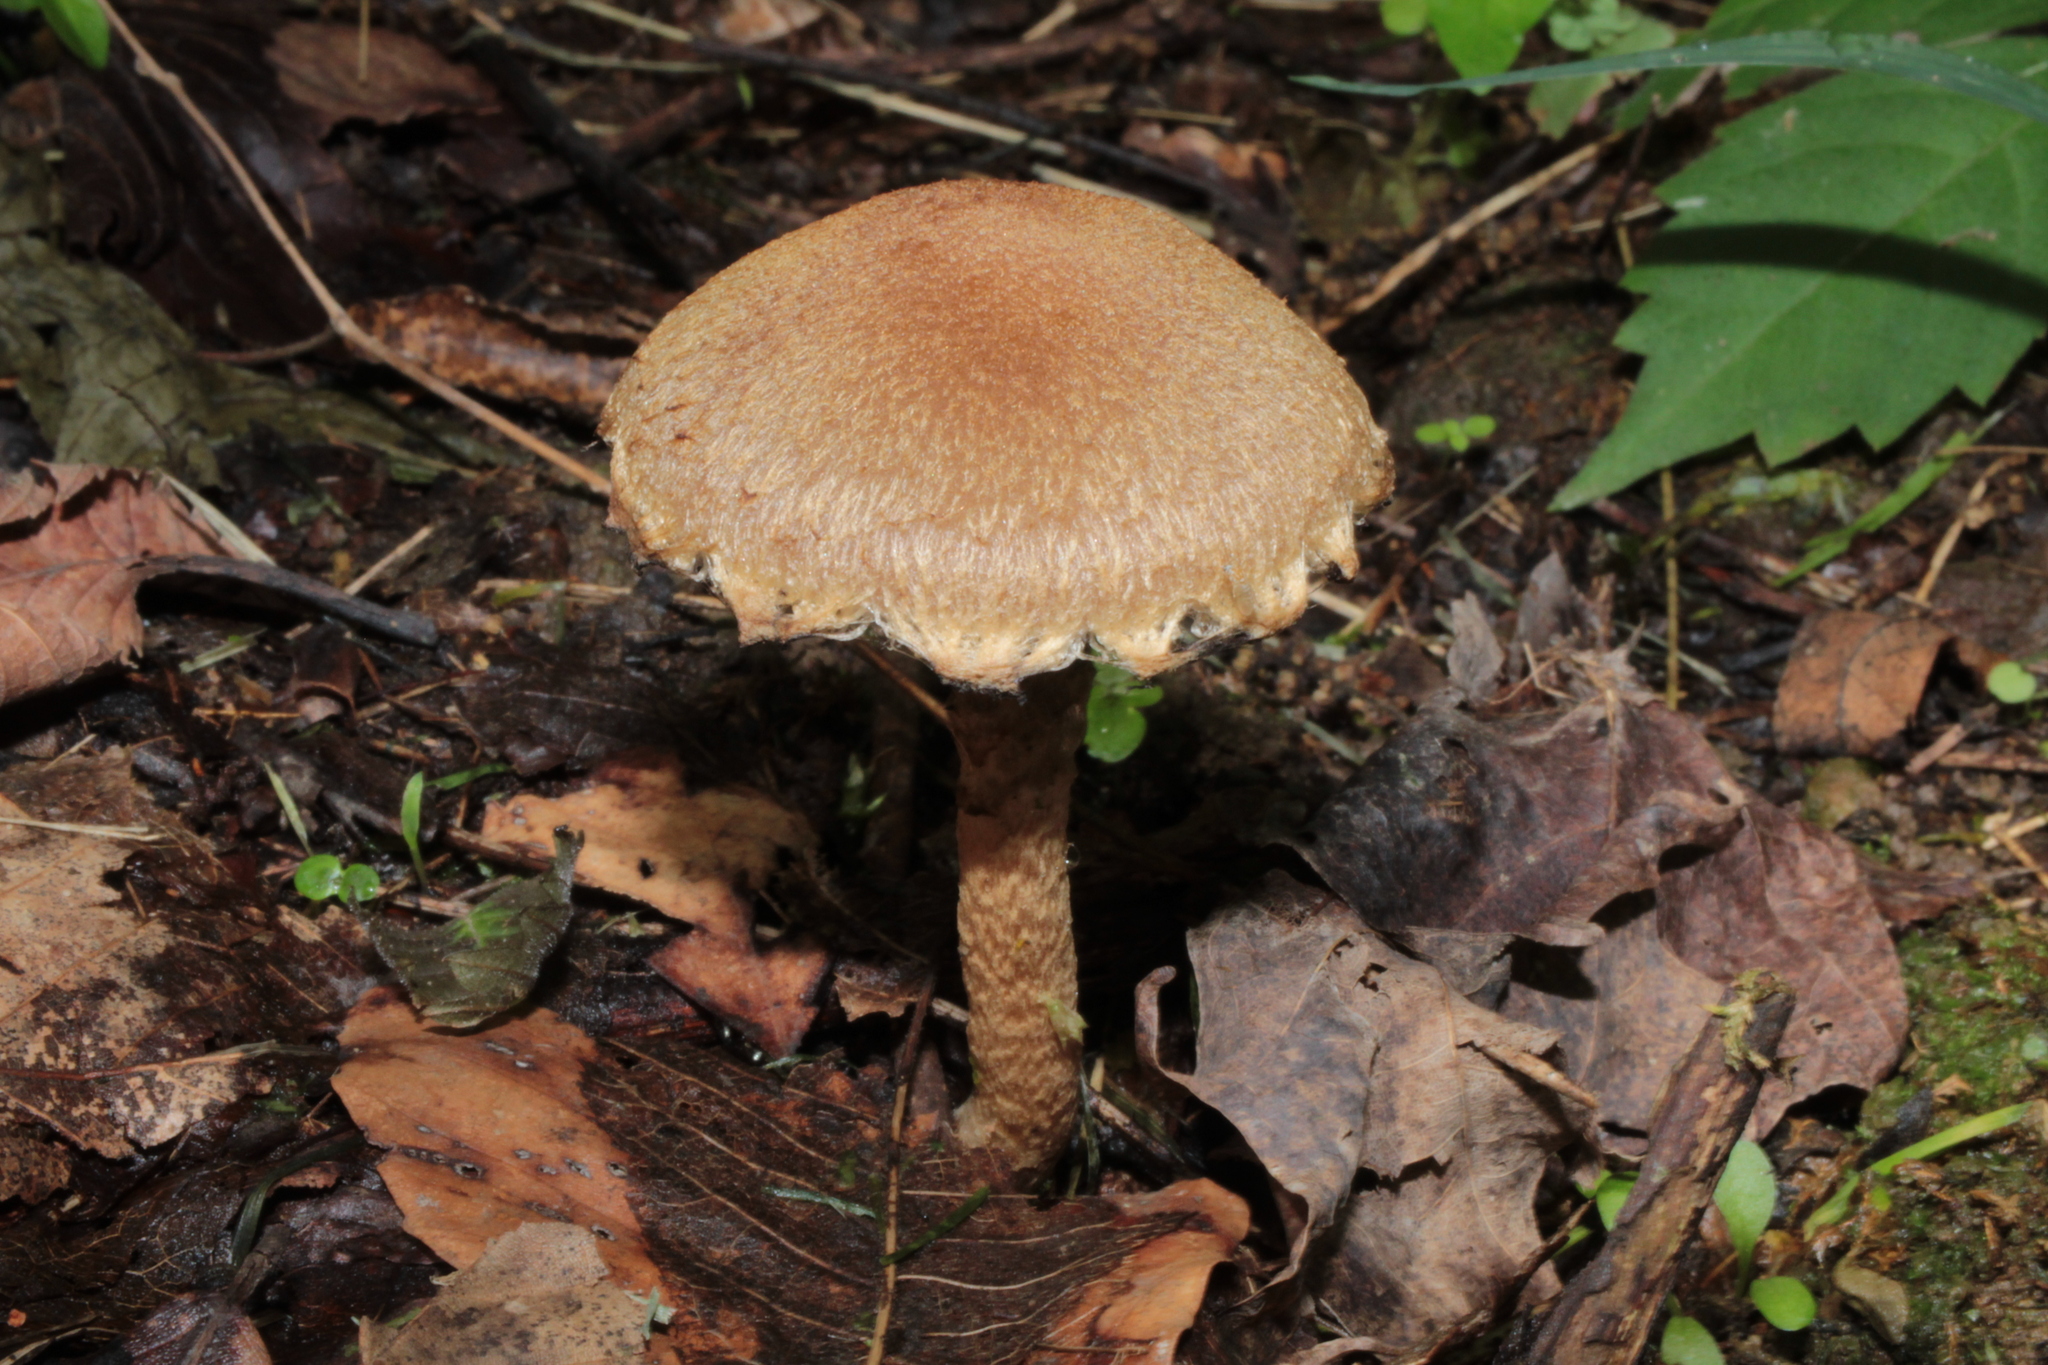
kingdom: Fungi
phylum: Basidiomycota
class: Agaricomycetes
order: Agaricales
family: Psathyrellaceae
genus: Lacrymaria
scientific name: Lacrymaria lacrymabunda
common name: Weeping widow
